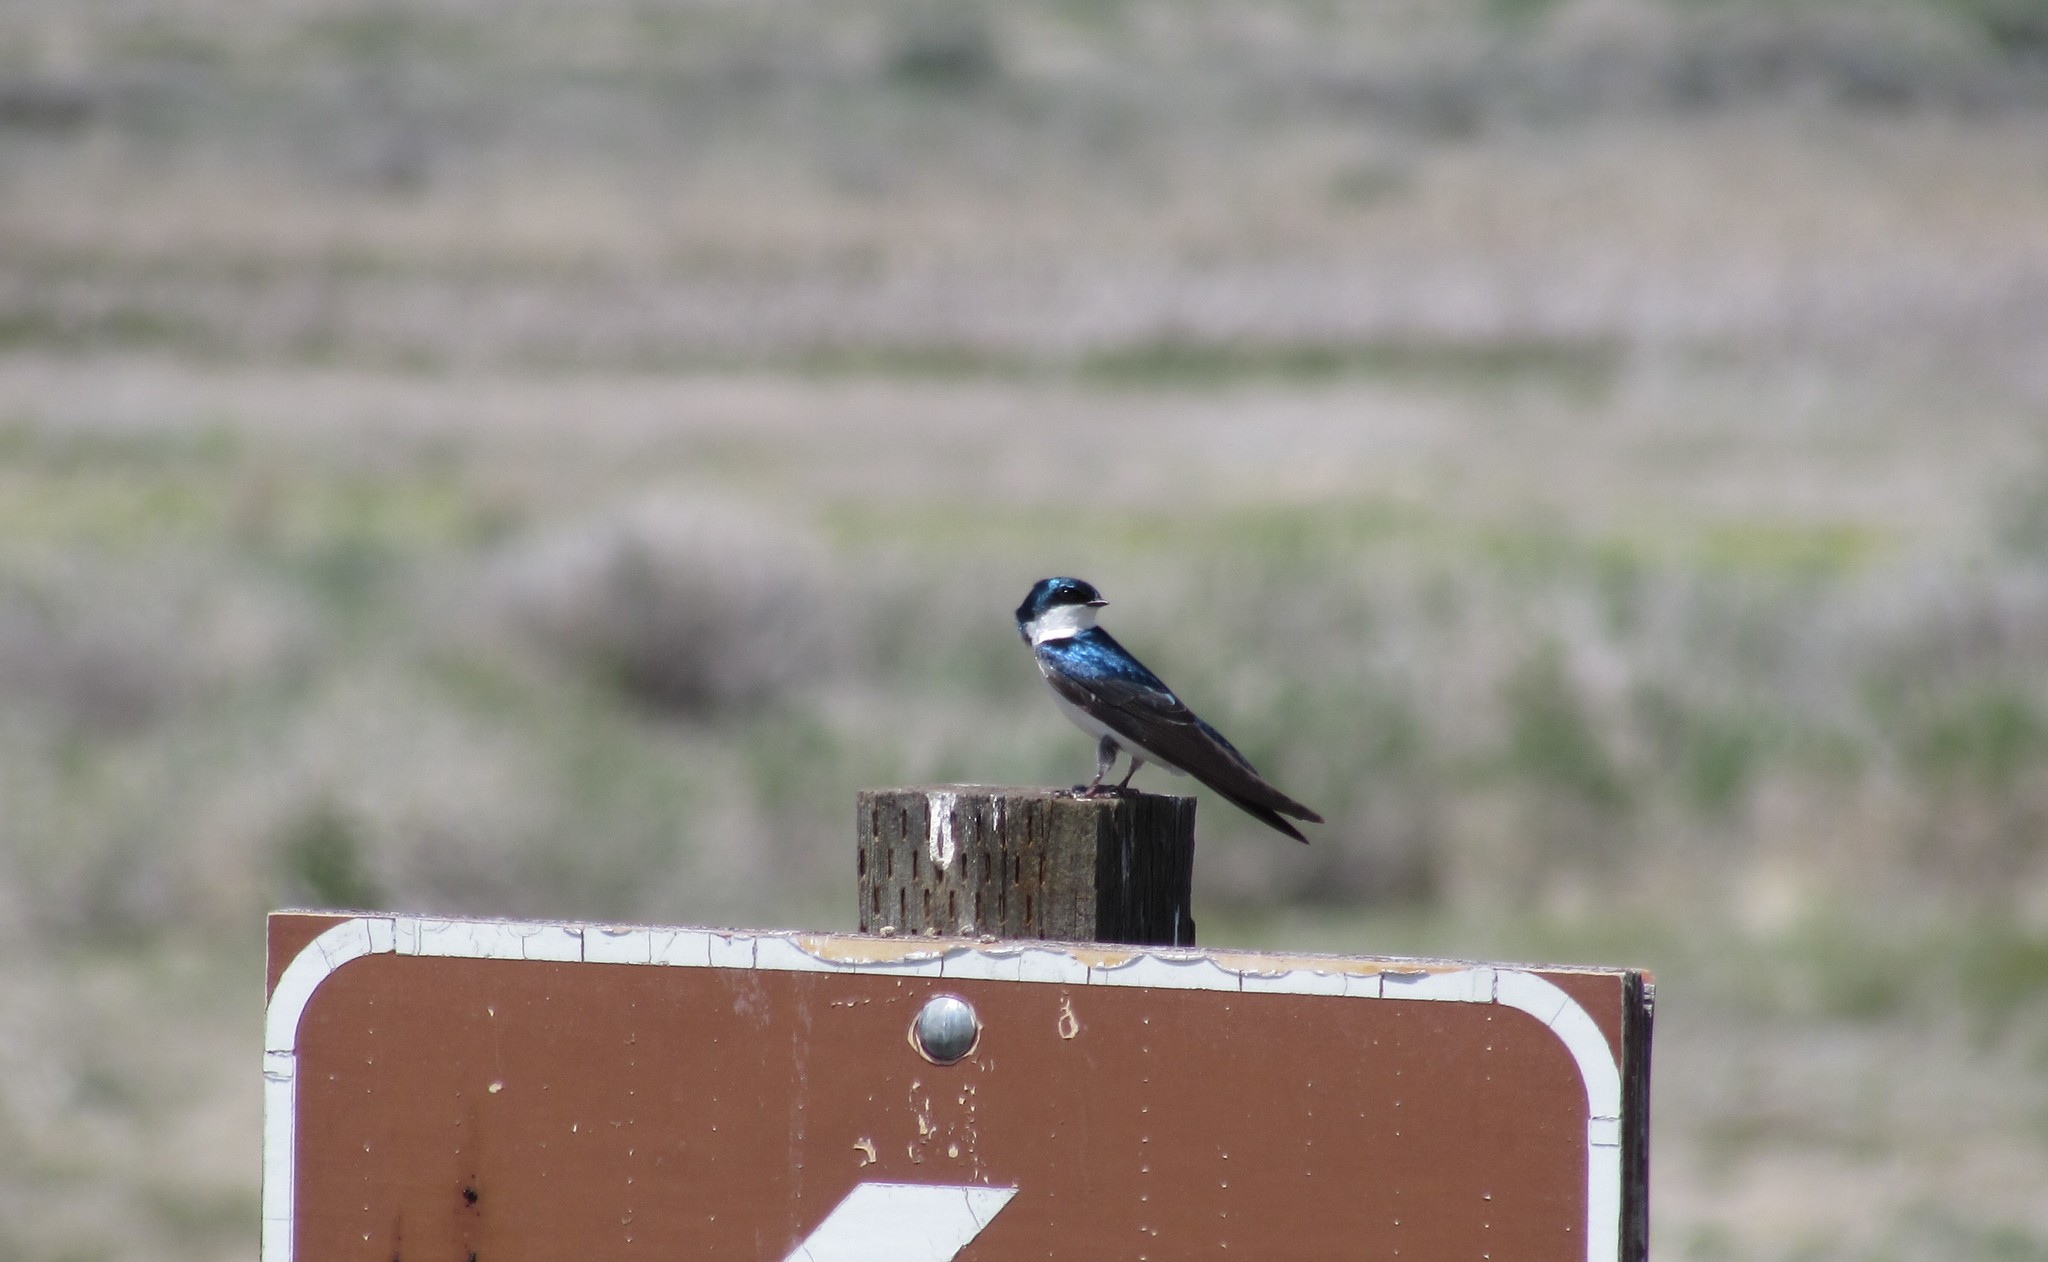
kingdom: Animalia
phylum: Chordata
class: Aves
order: Passeriformes
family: Hirundinidae
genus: Tachycineta
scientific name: Tachycineta bicolor
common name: Tree swallow
